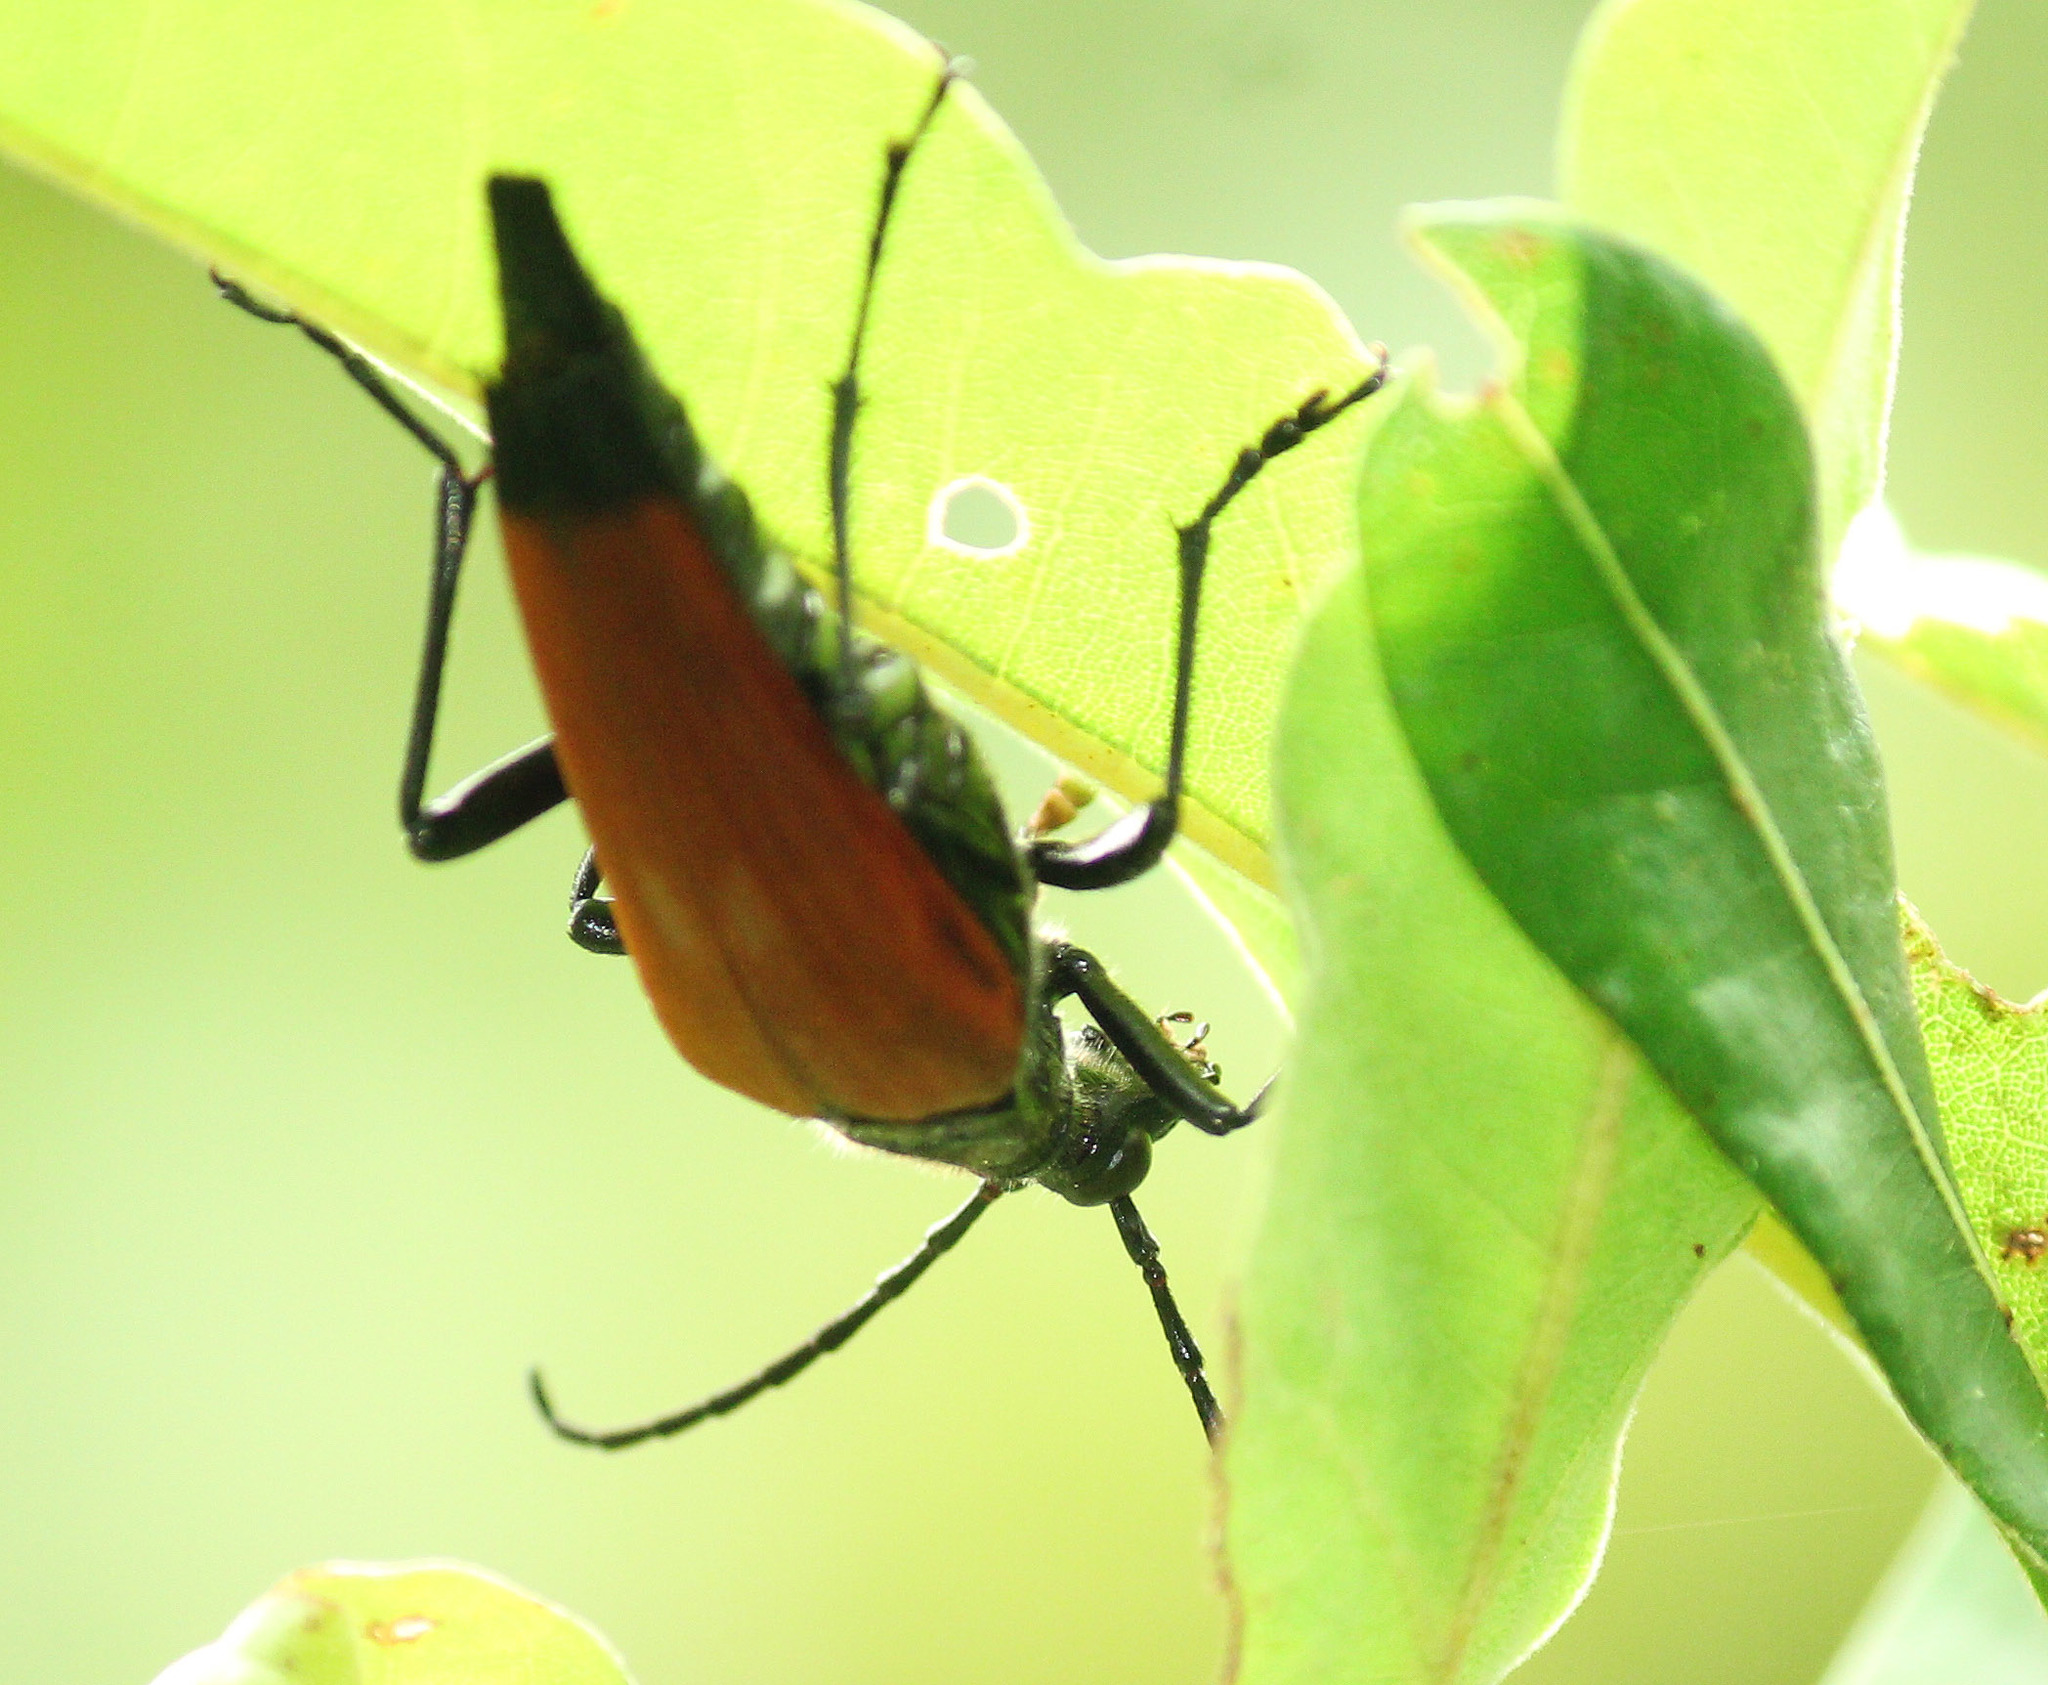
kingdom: Animalia
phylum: Arthropoda
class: Insecta
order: Coleoptera
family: Cerambycidae
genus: Stenelytrana
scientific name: Stenelytrana emarginata
